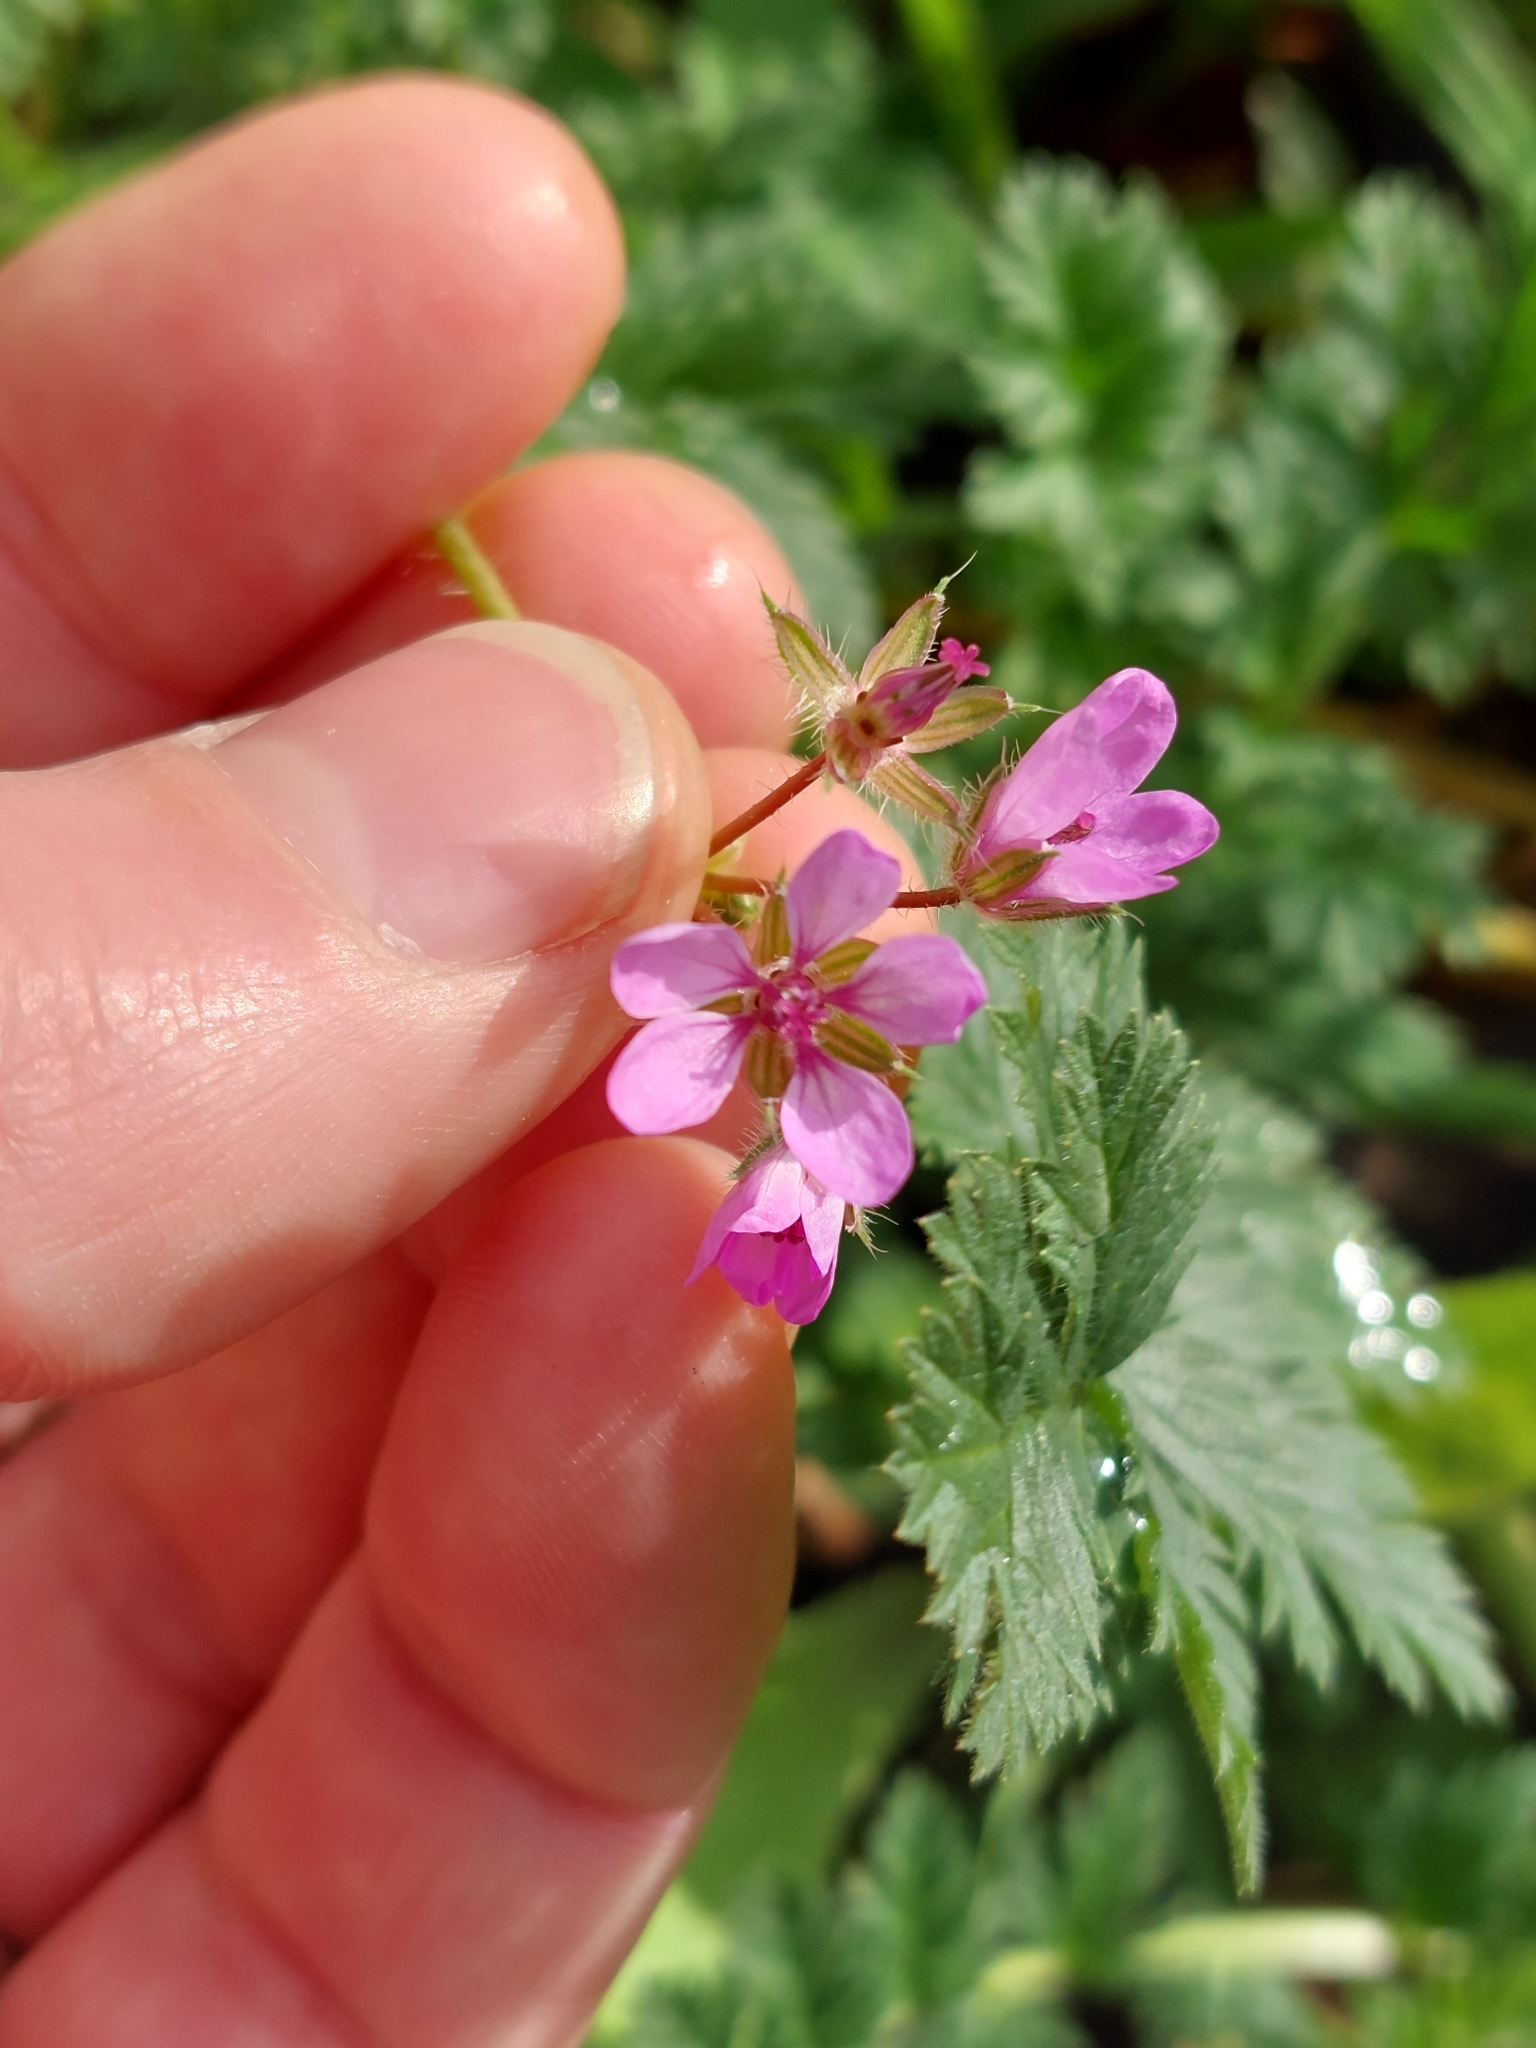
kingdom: Plantae
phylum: Tracheophyta
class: Magnoliopsida
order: Geraniales
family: Geraniaceae
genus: Erodium
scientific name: Erodium cicutarium
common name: Common stork's-bill
